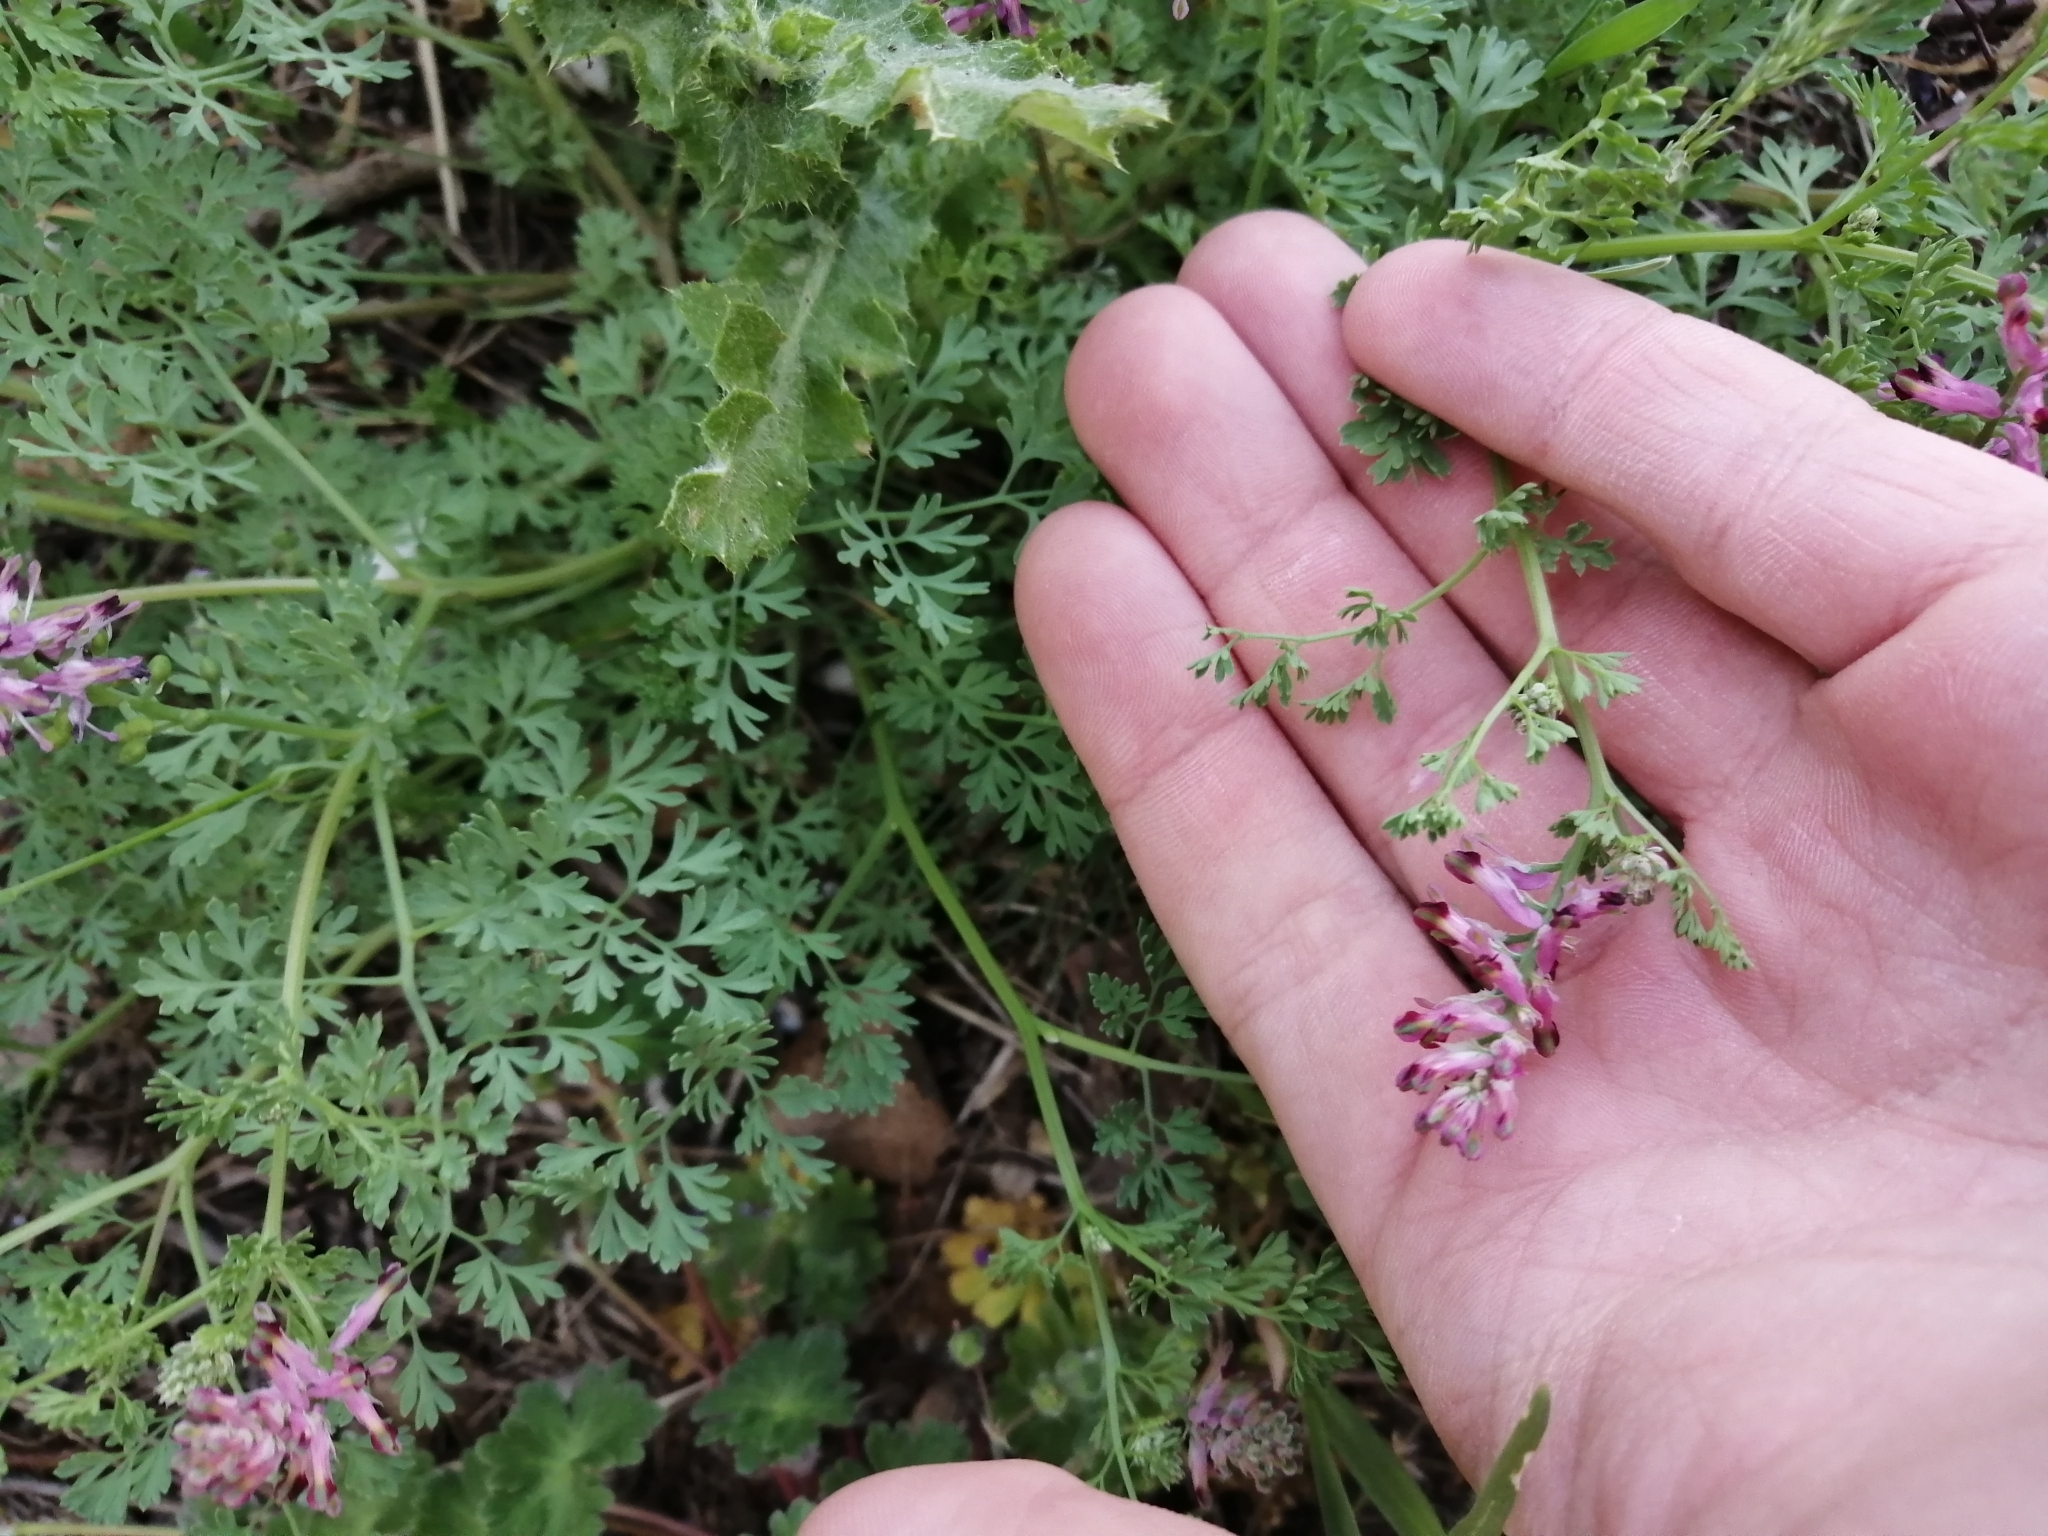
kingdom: Plantae
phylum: Tracheophyta
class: Magnoliopsida
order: Ranunculales
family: Papaveraceae
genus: Fumaria
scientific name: Fumaria officinalis
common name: Common fumitory
